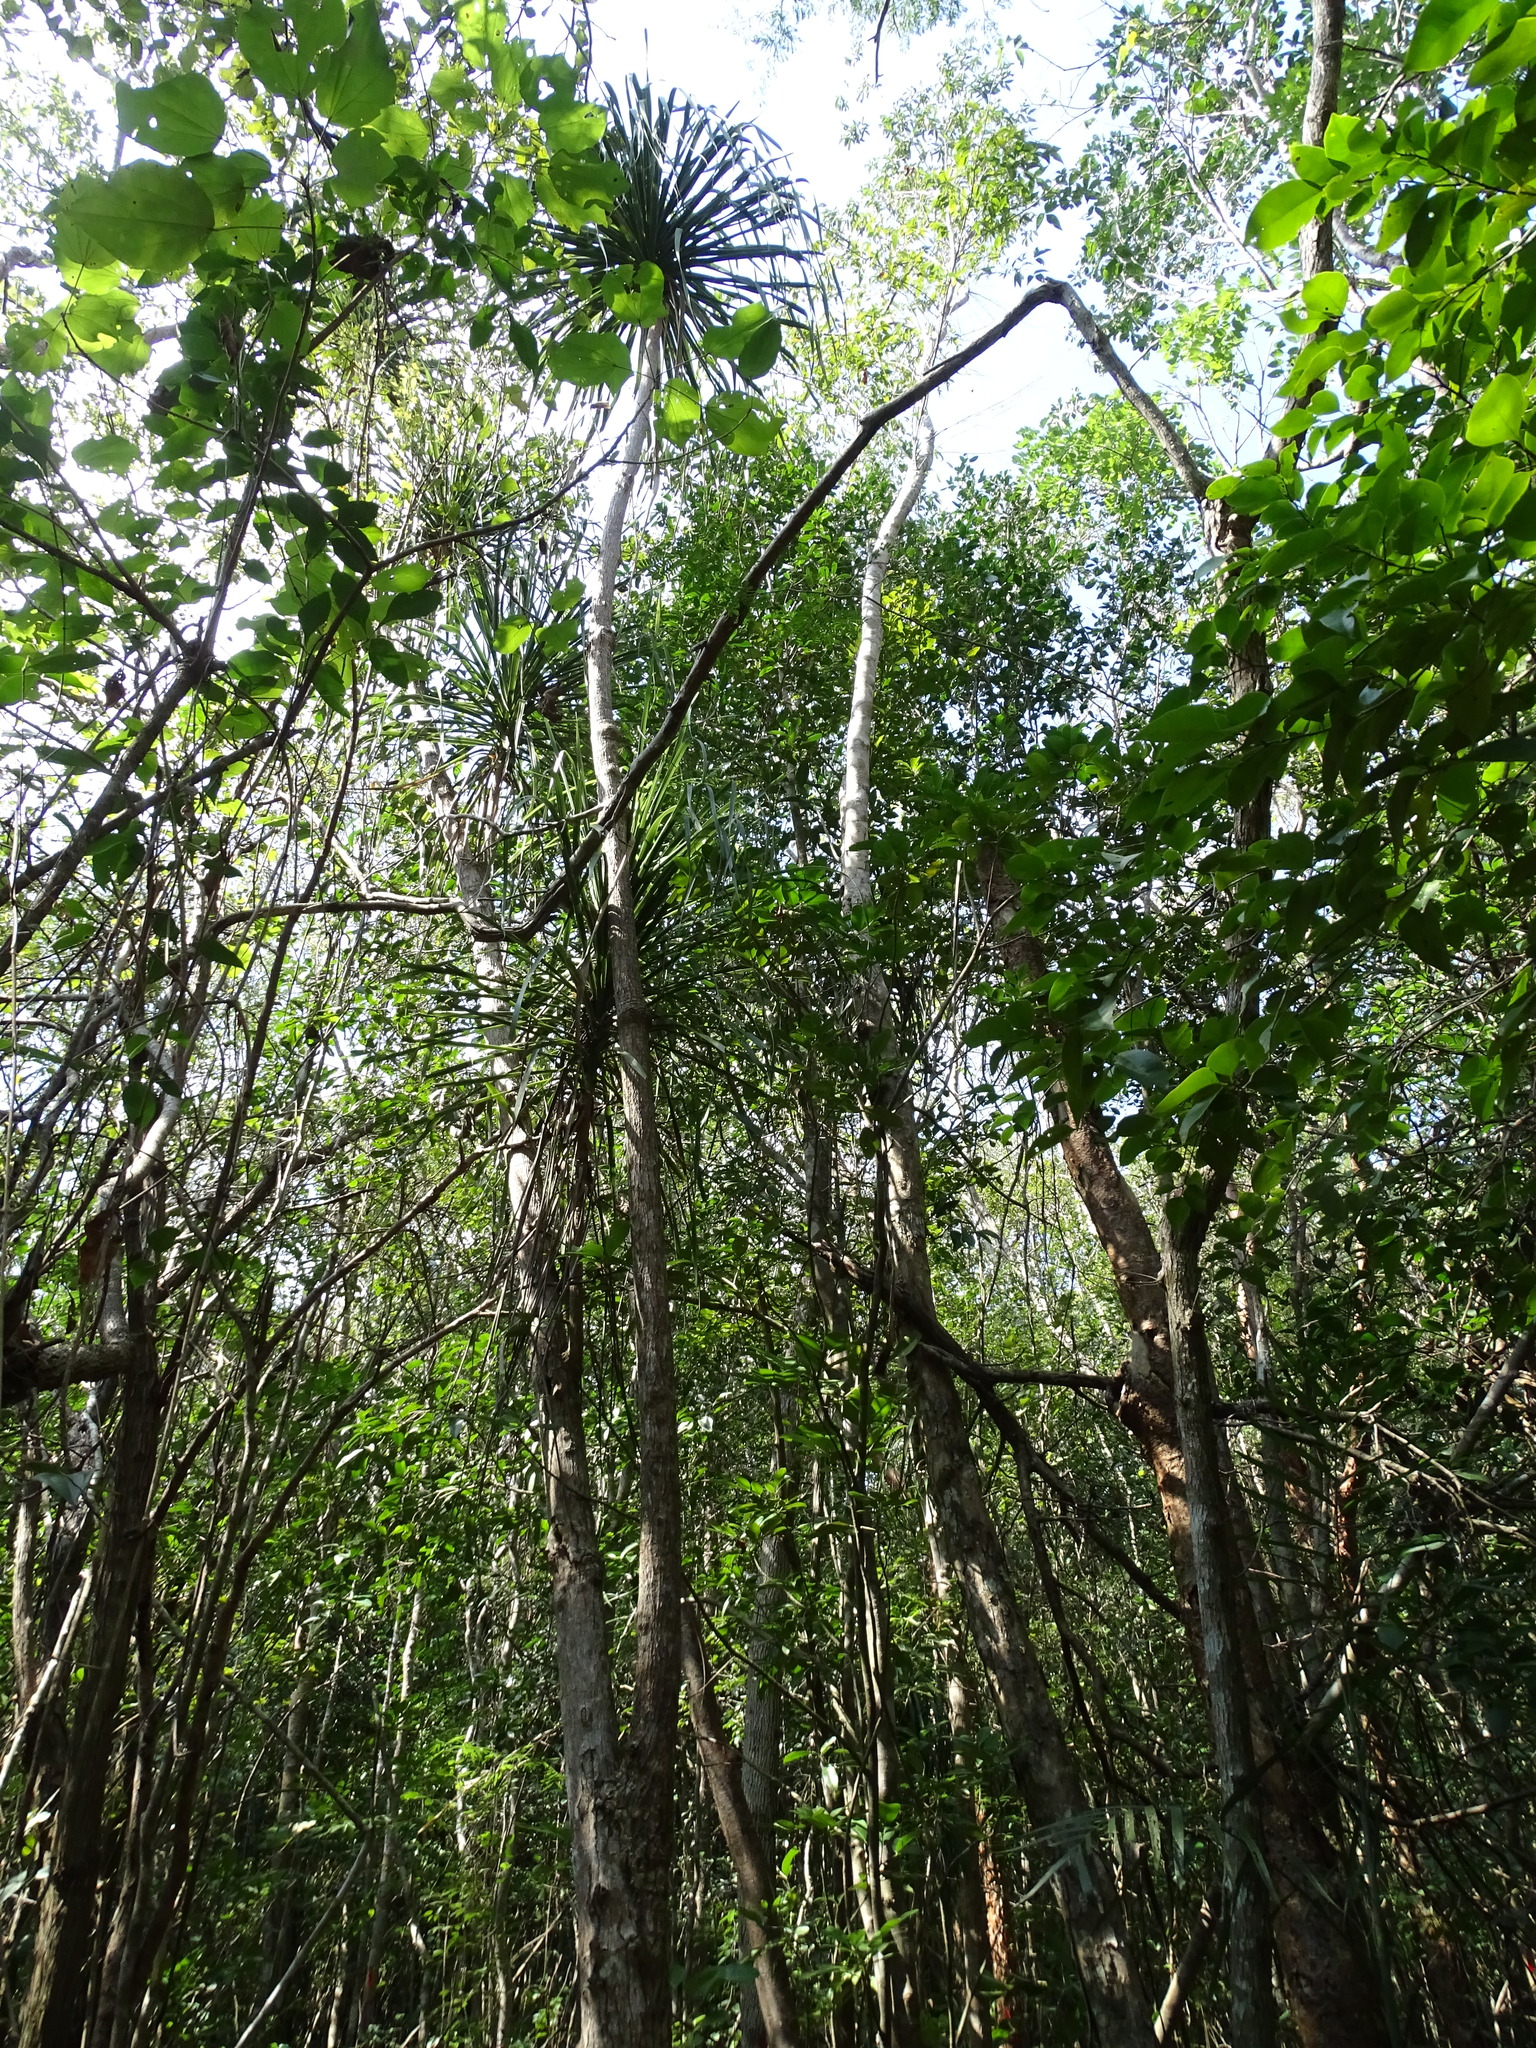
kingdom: Plantae
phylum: Tracheophyta
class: Liliopsida
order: Asparagales
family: Asparagaceae
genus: Beaucarnea
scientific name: Beaucarnea pliabilis
